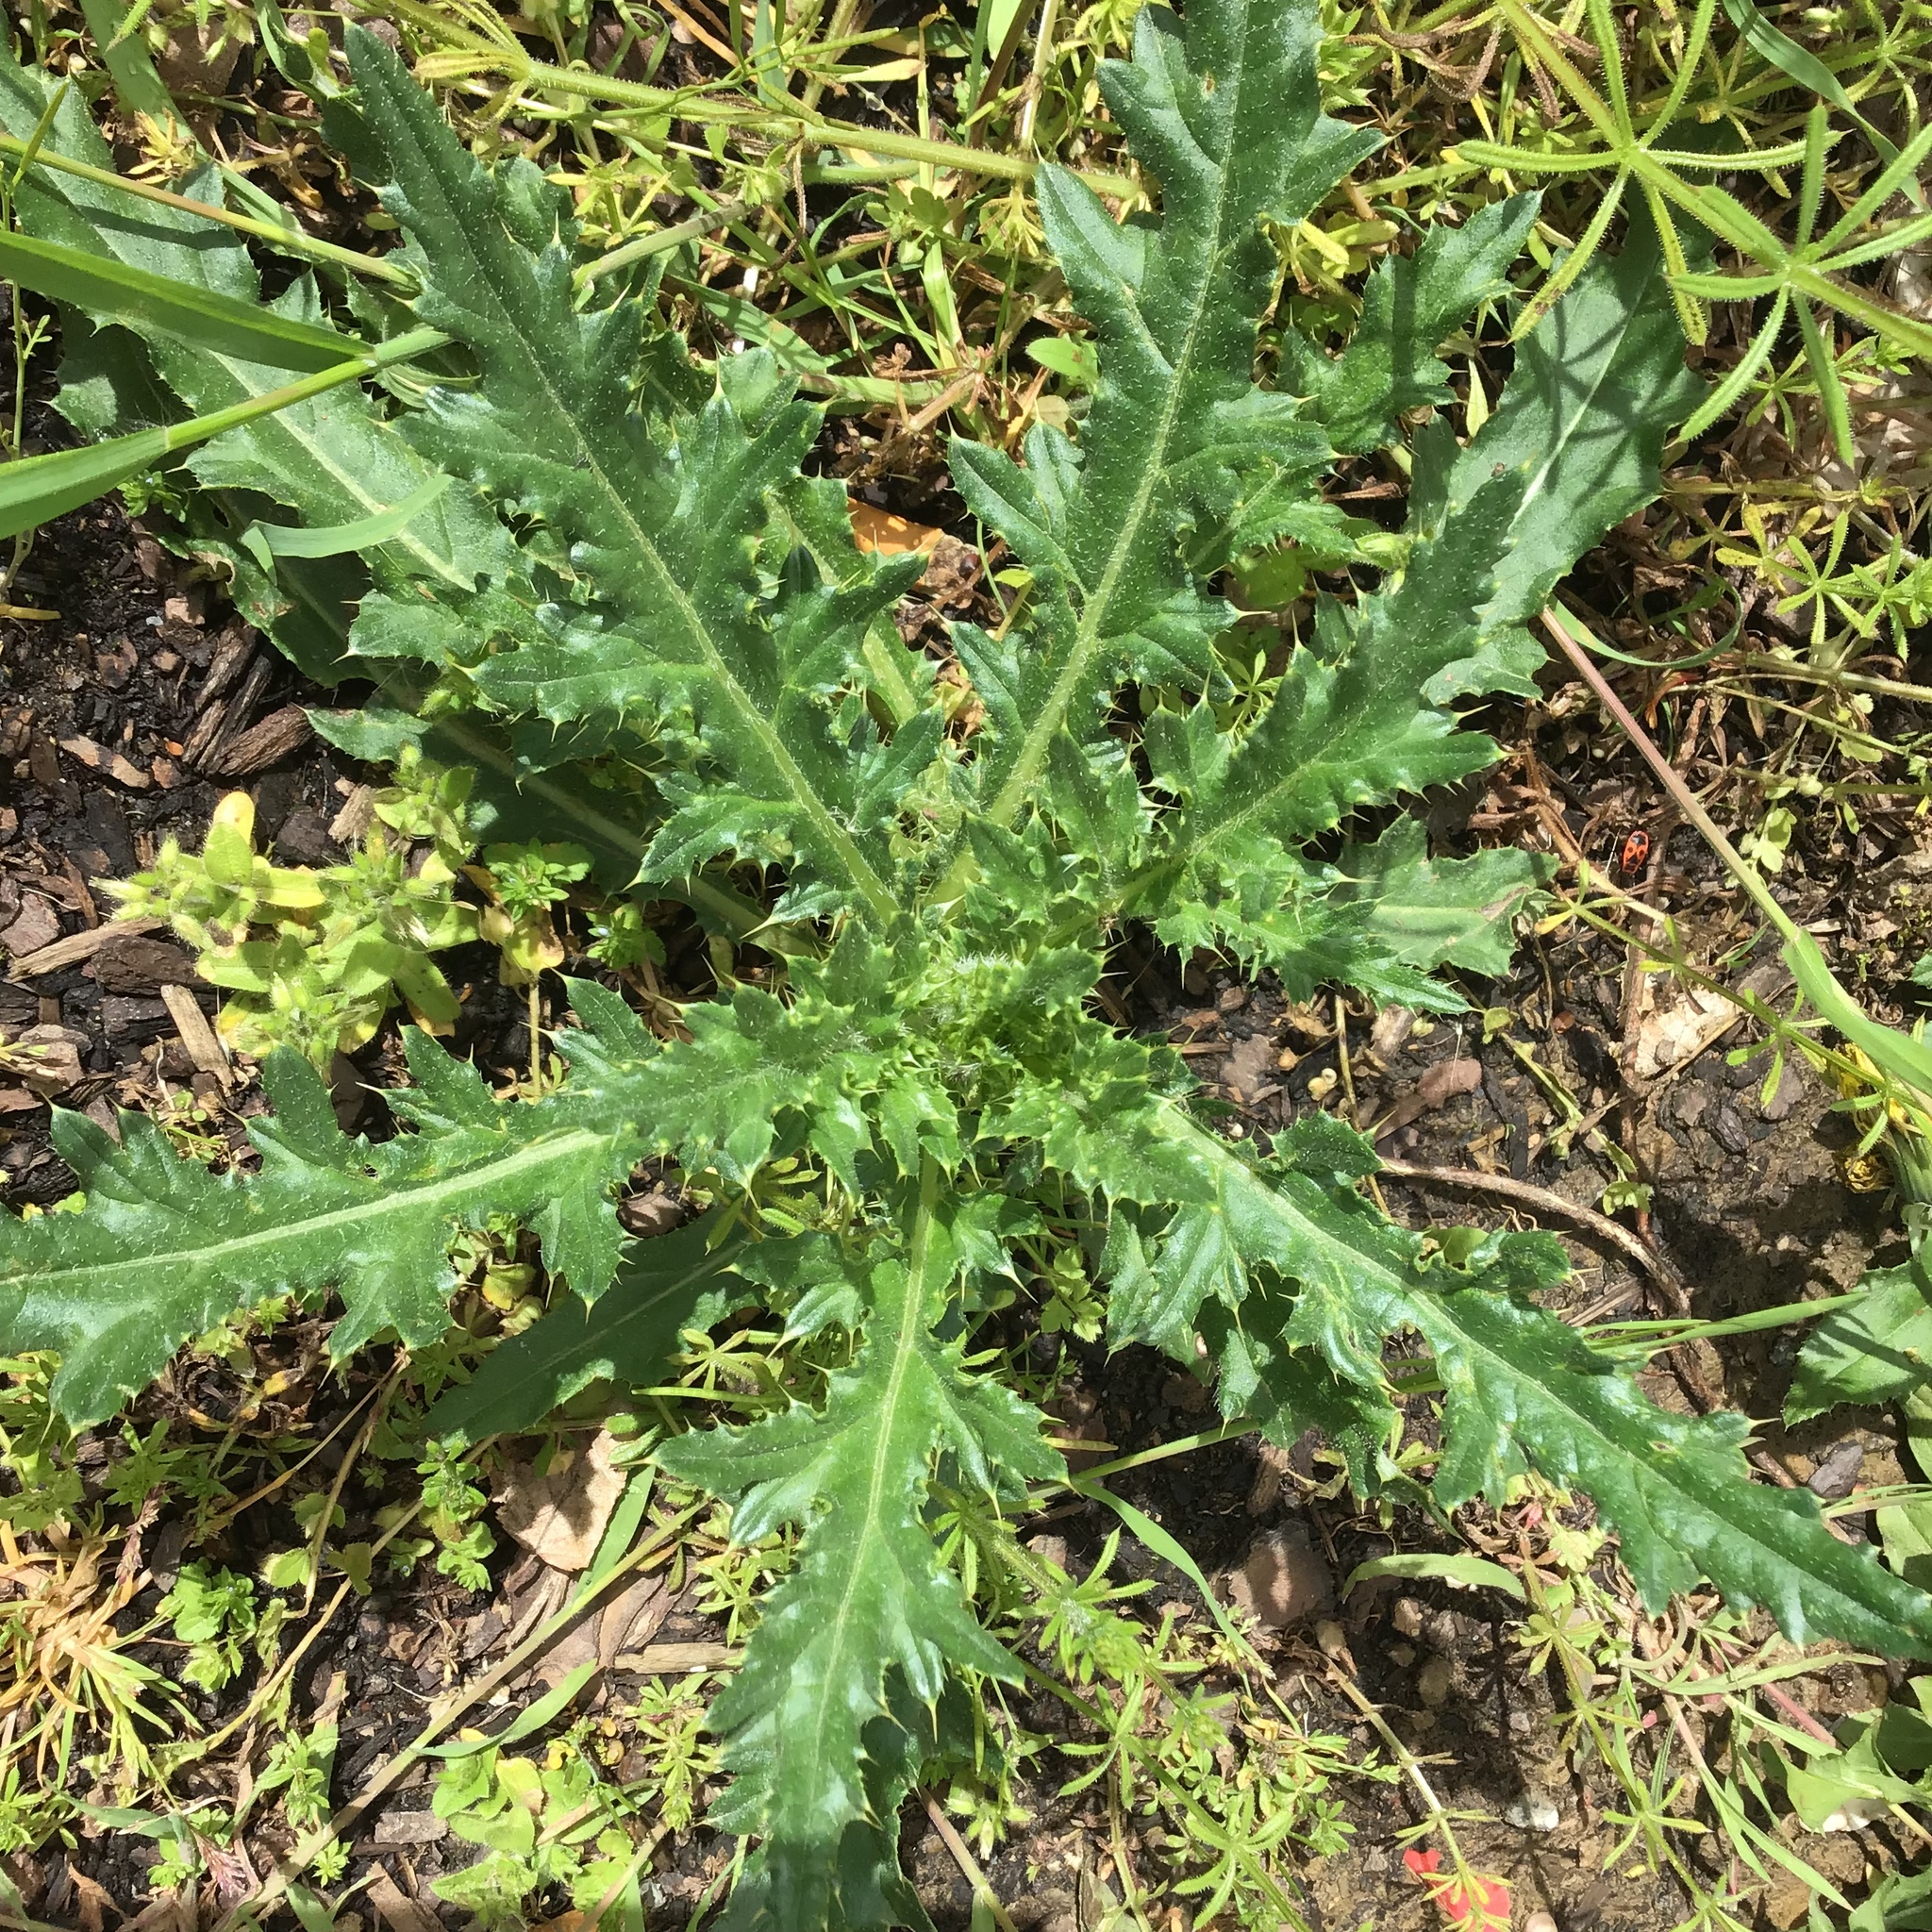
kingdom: Plantae
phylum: Tracheophyta
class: Magnoliopsida
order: Asterales
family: Asteraceae
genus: Cirsium
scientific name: Cirsium arvense
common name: Creeping thistle
